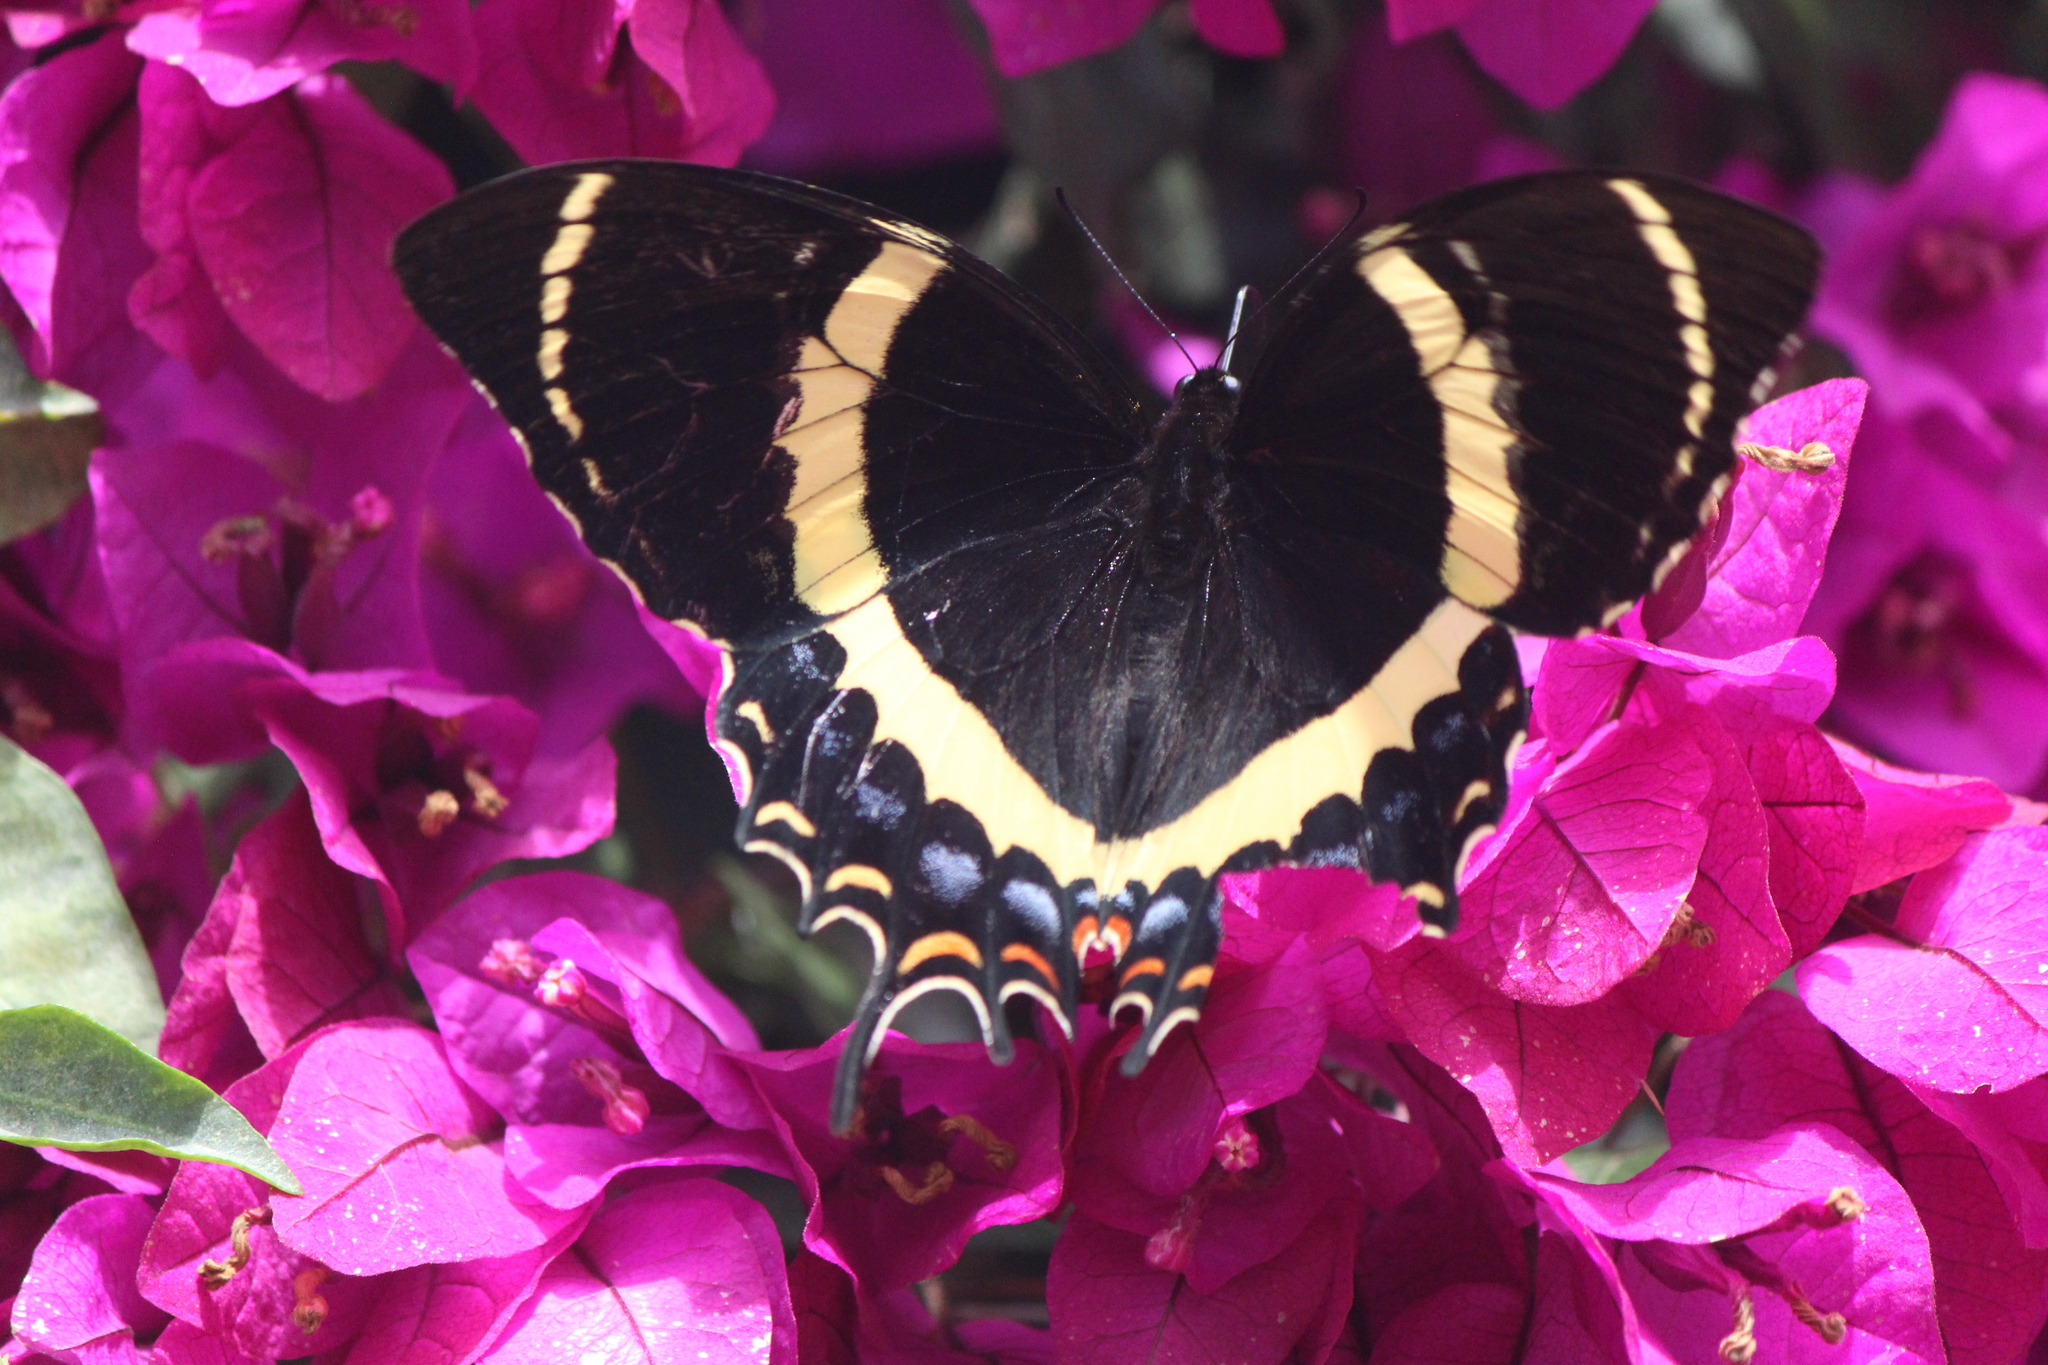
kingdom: Animalia
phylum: Arthropoda
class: Insecta
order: Lepidoptera
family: Papilionidae
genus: Papilio
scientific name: Papilio garamas
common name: Magnificent swallowtail
